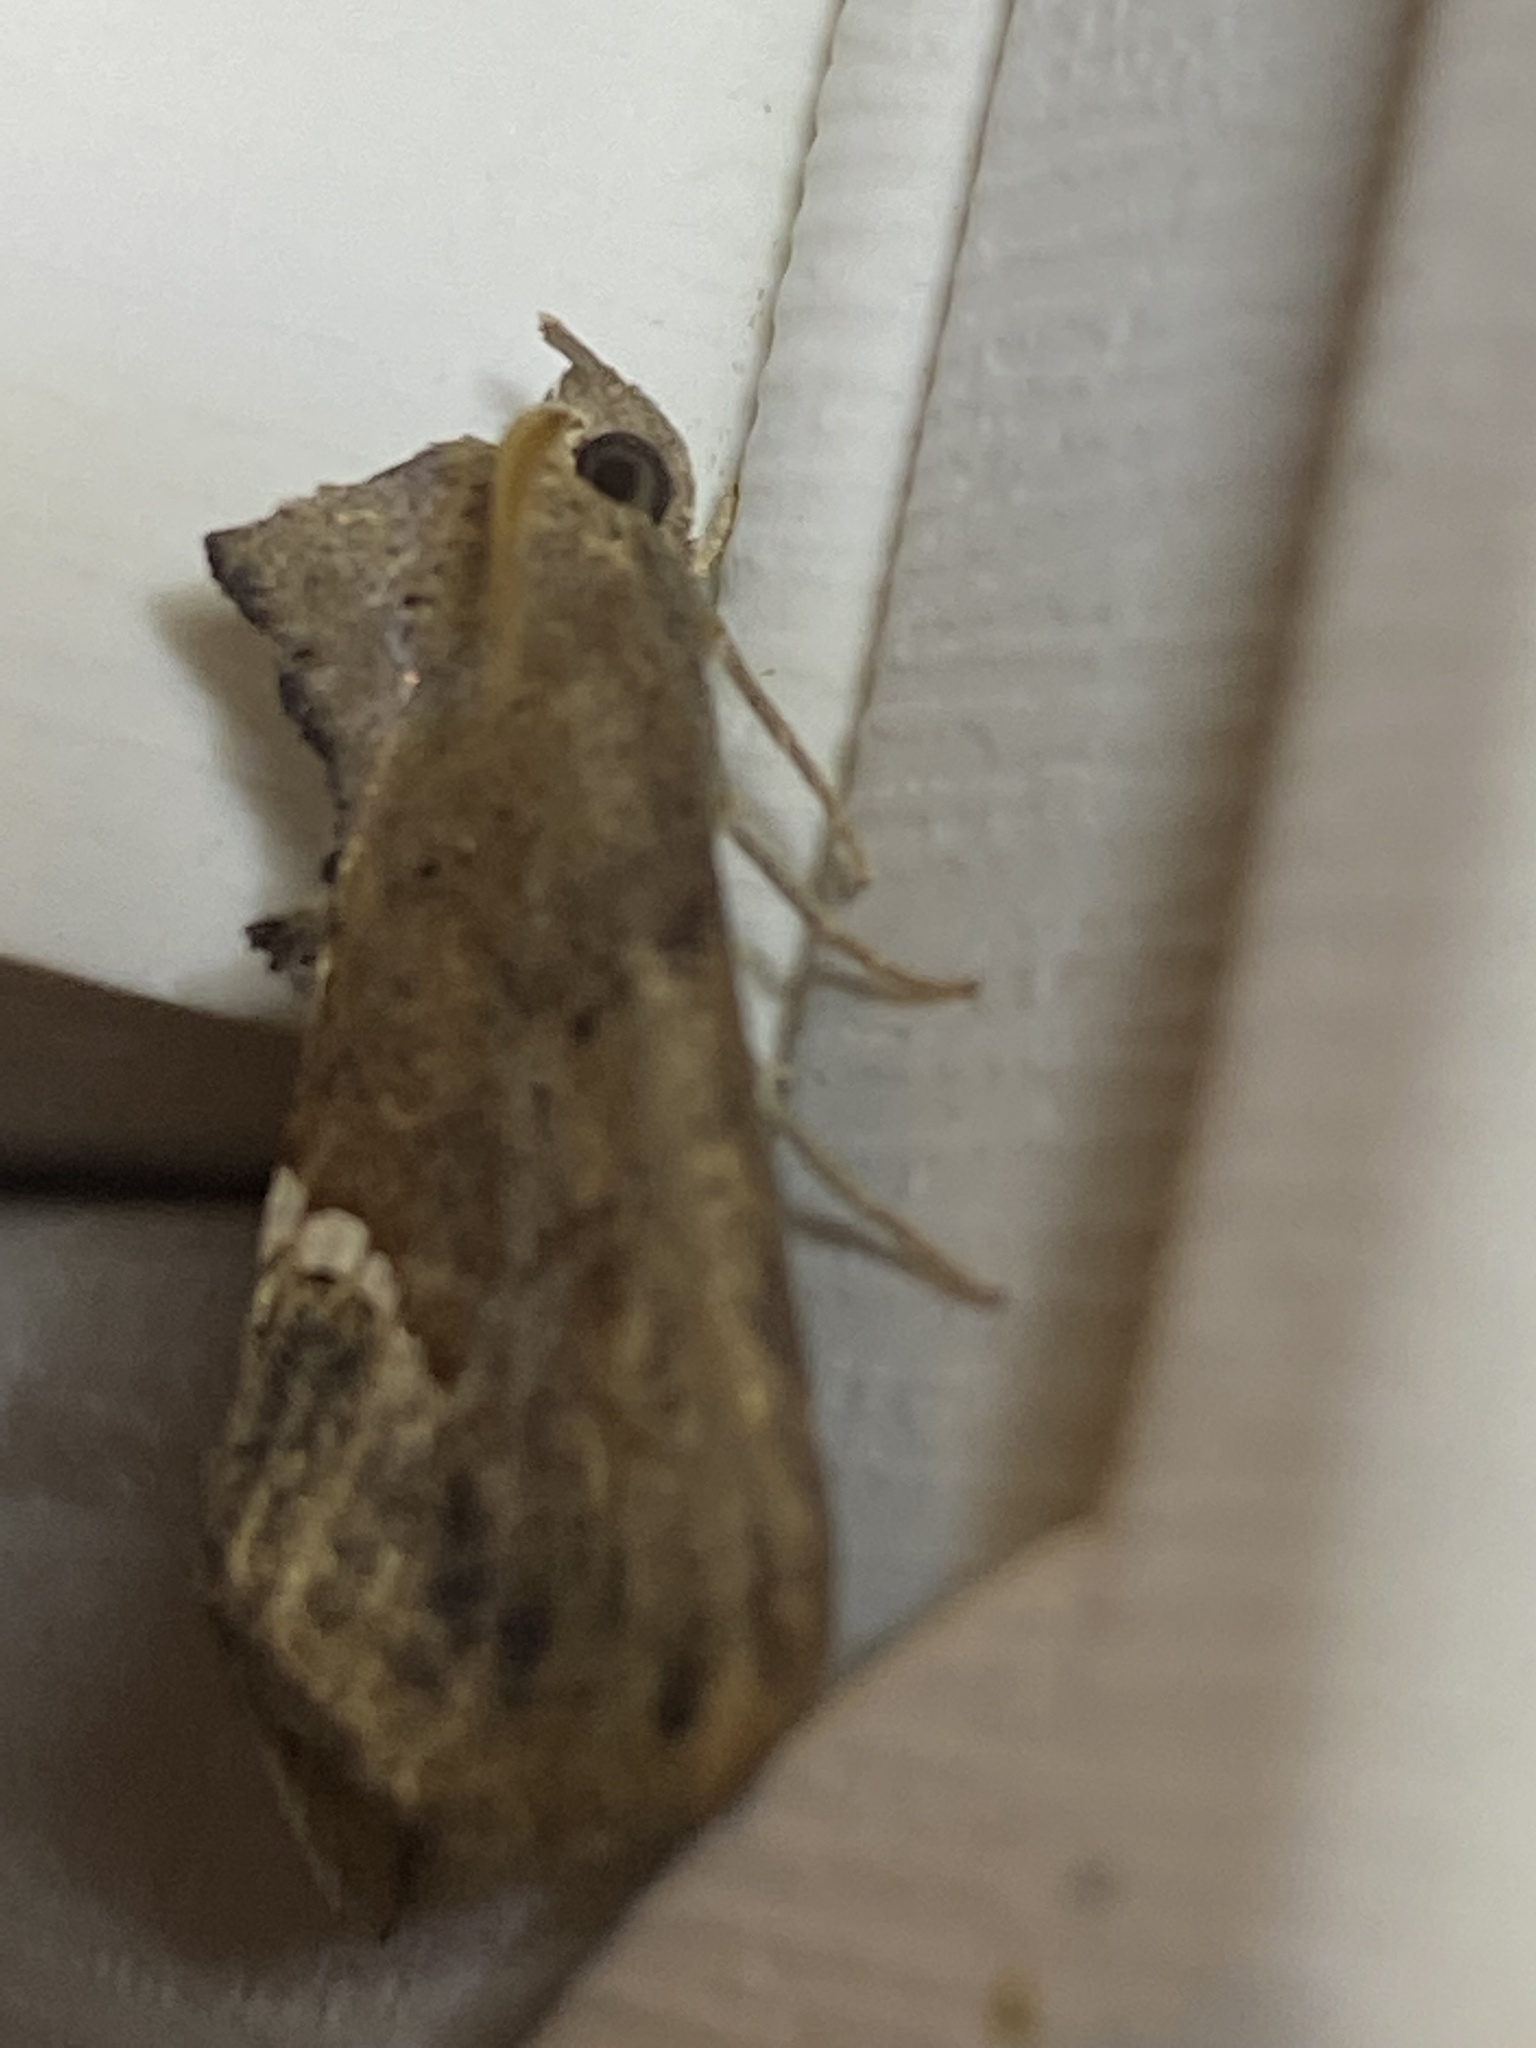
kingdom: Animalia
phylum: Arthropoda
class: Insecta
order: Lepidoptera
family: Erebidae
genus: Hypsoropha
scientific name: Hypsoropha hormos
